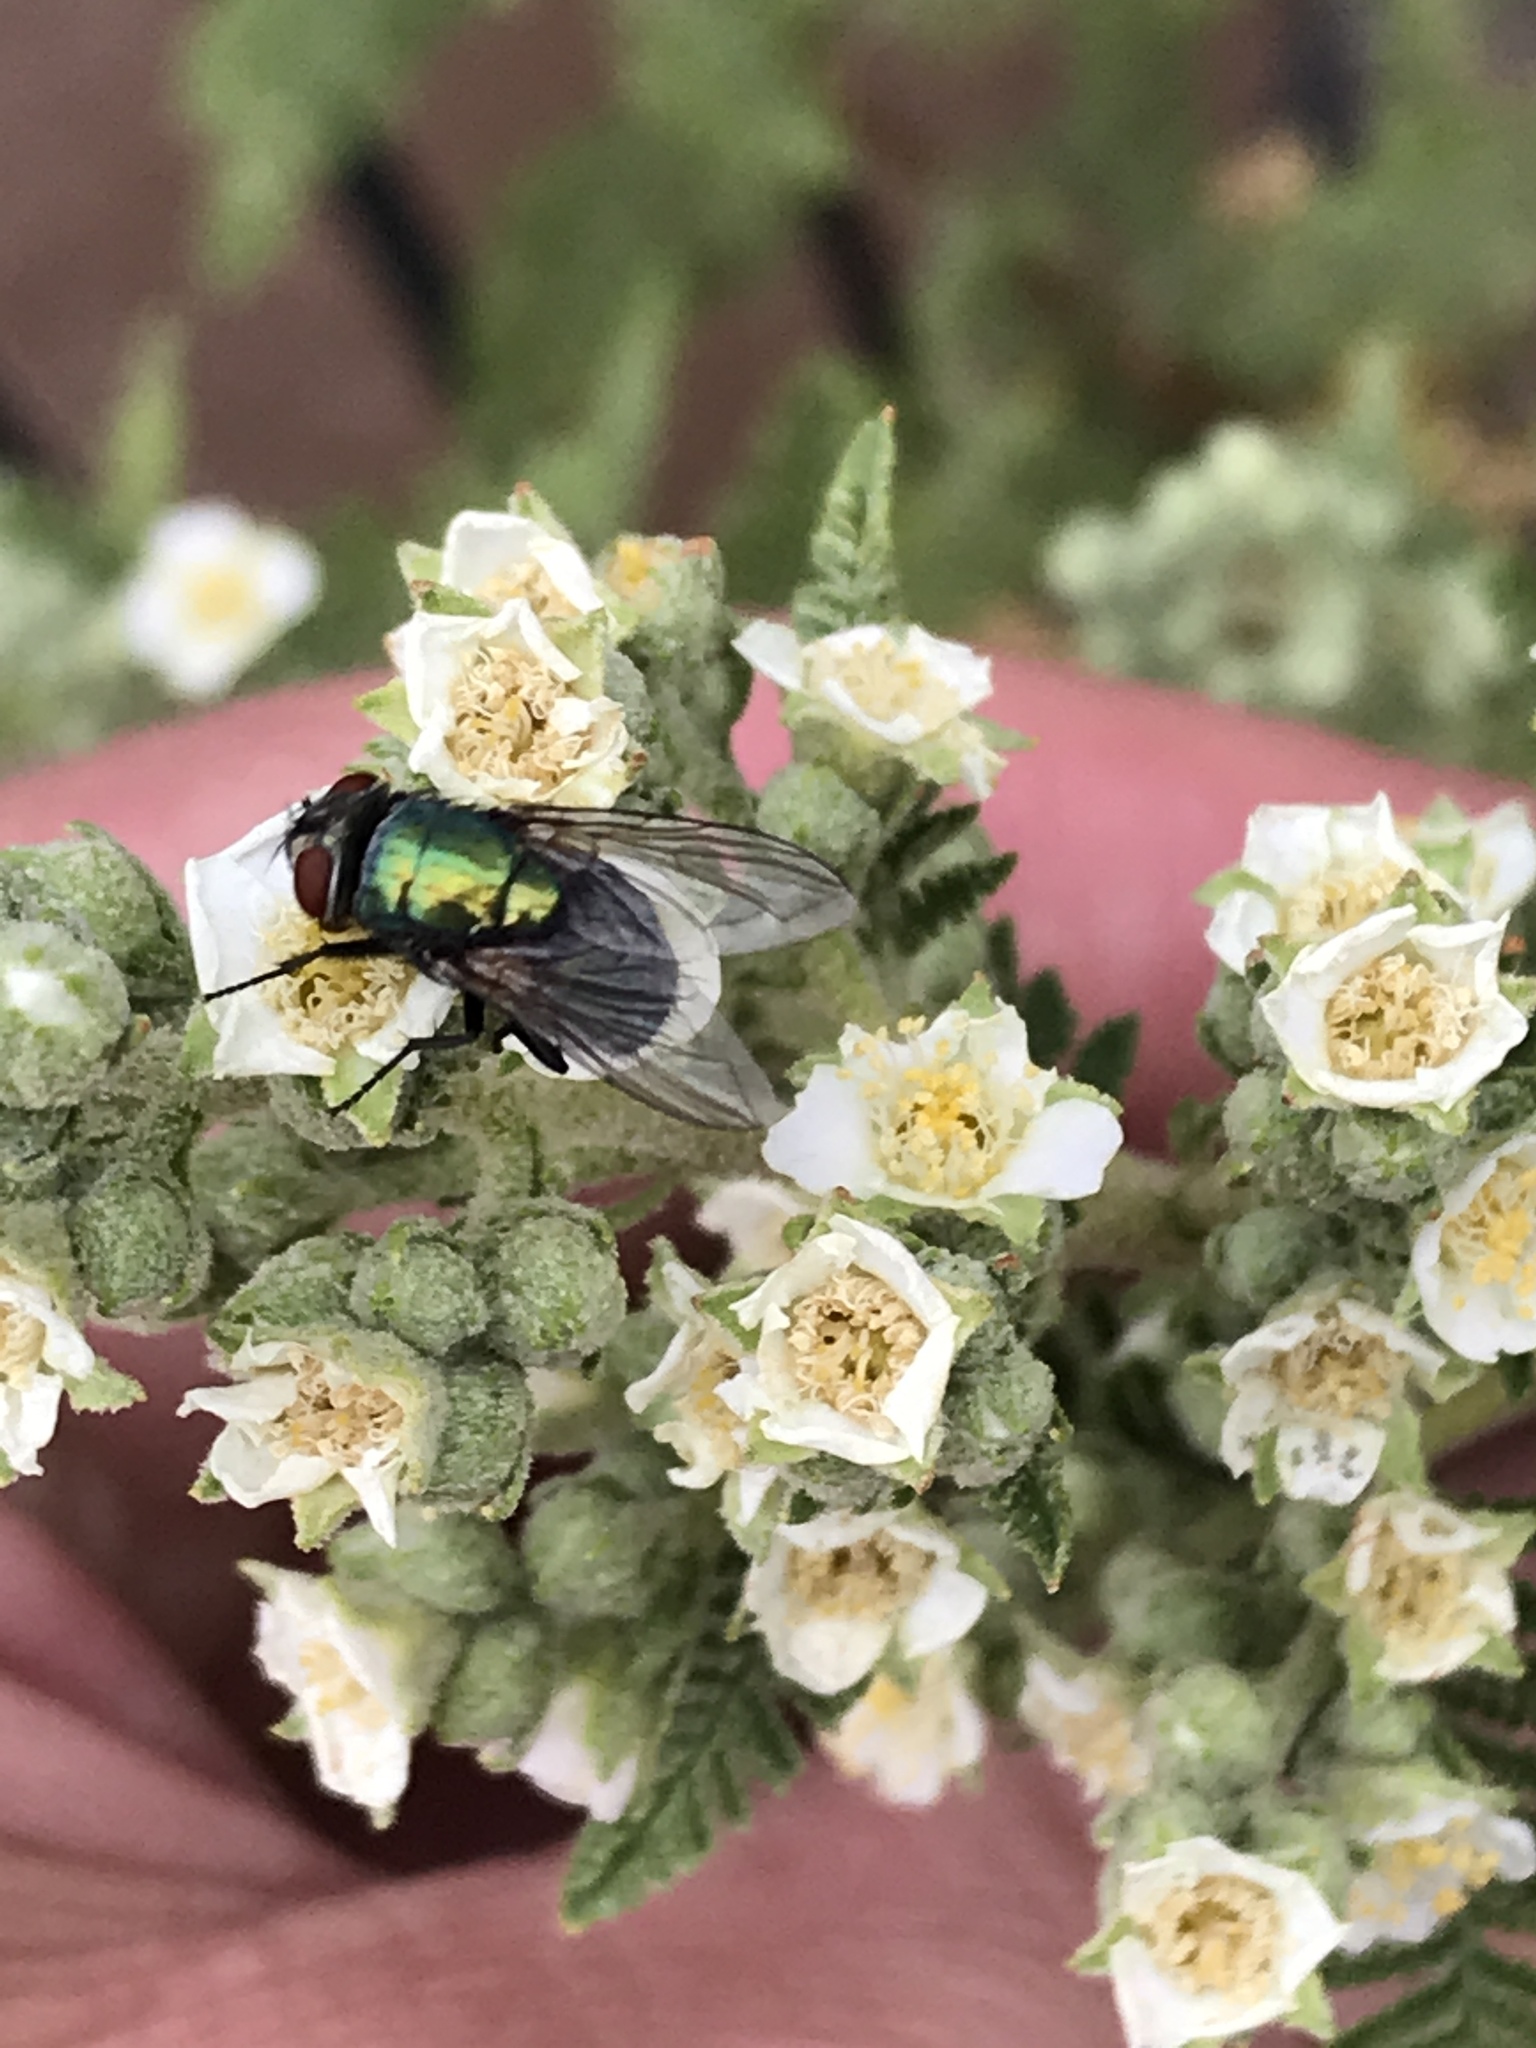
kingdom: Animalia
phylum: Arthropoda
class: Insecta
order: Diptera
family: Calliphoridae
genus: Lucilia
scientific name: Lucilia sericata
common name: Blow fly
